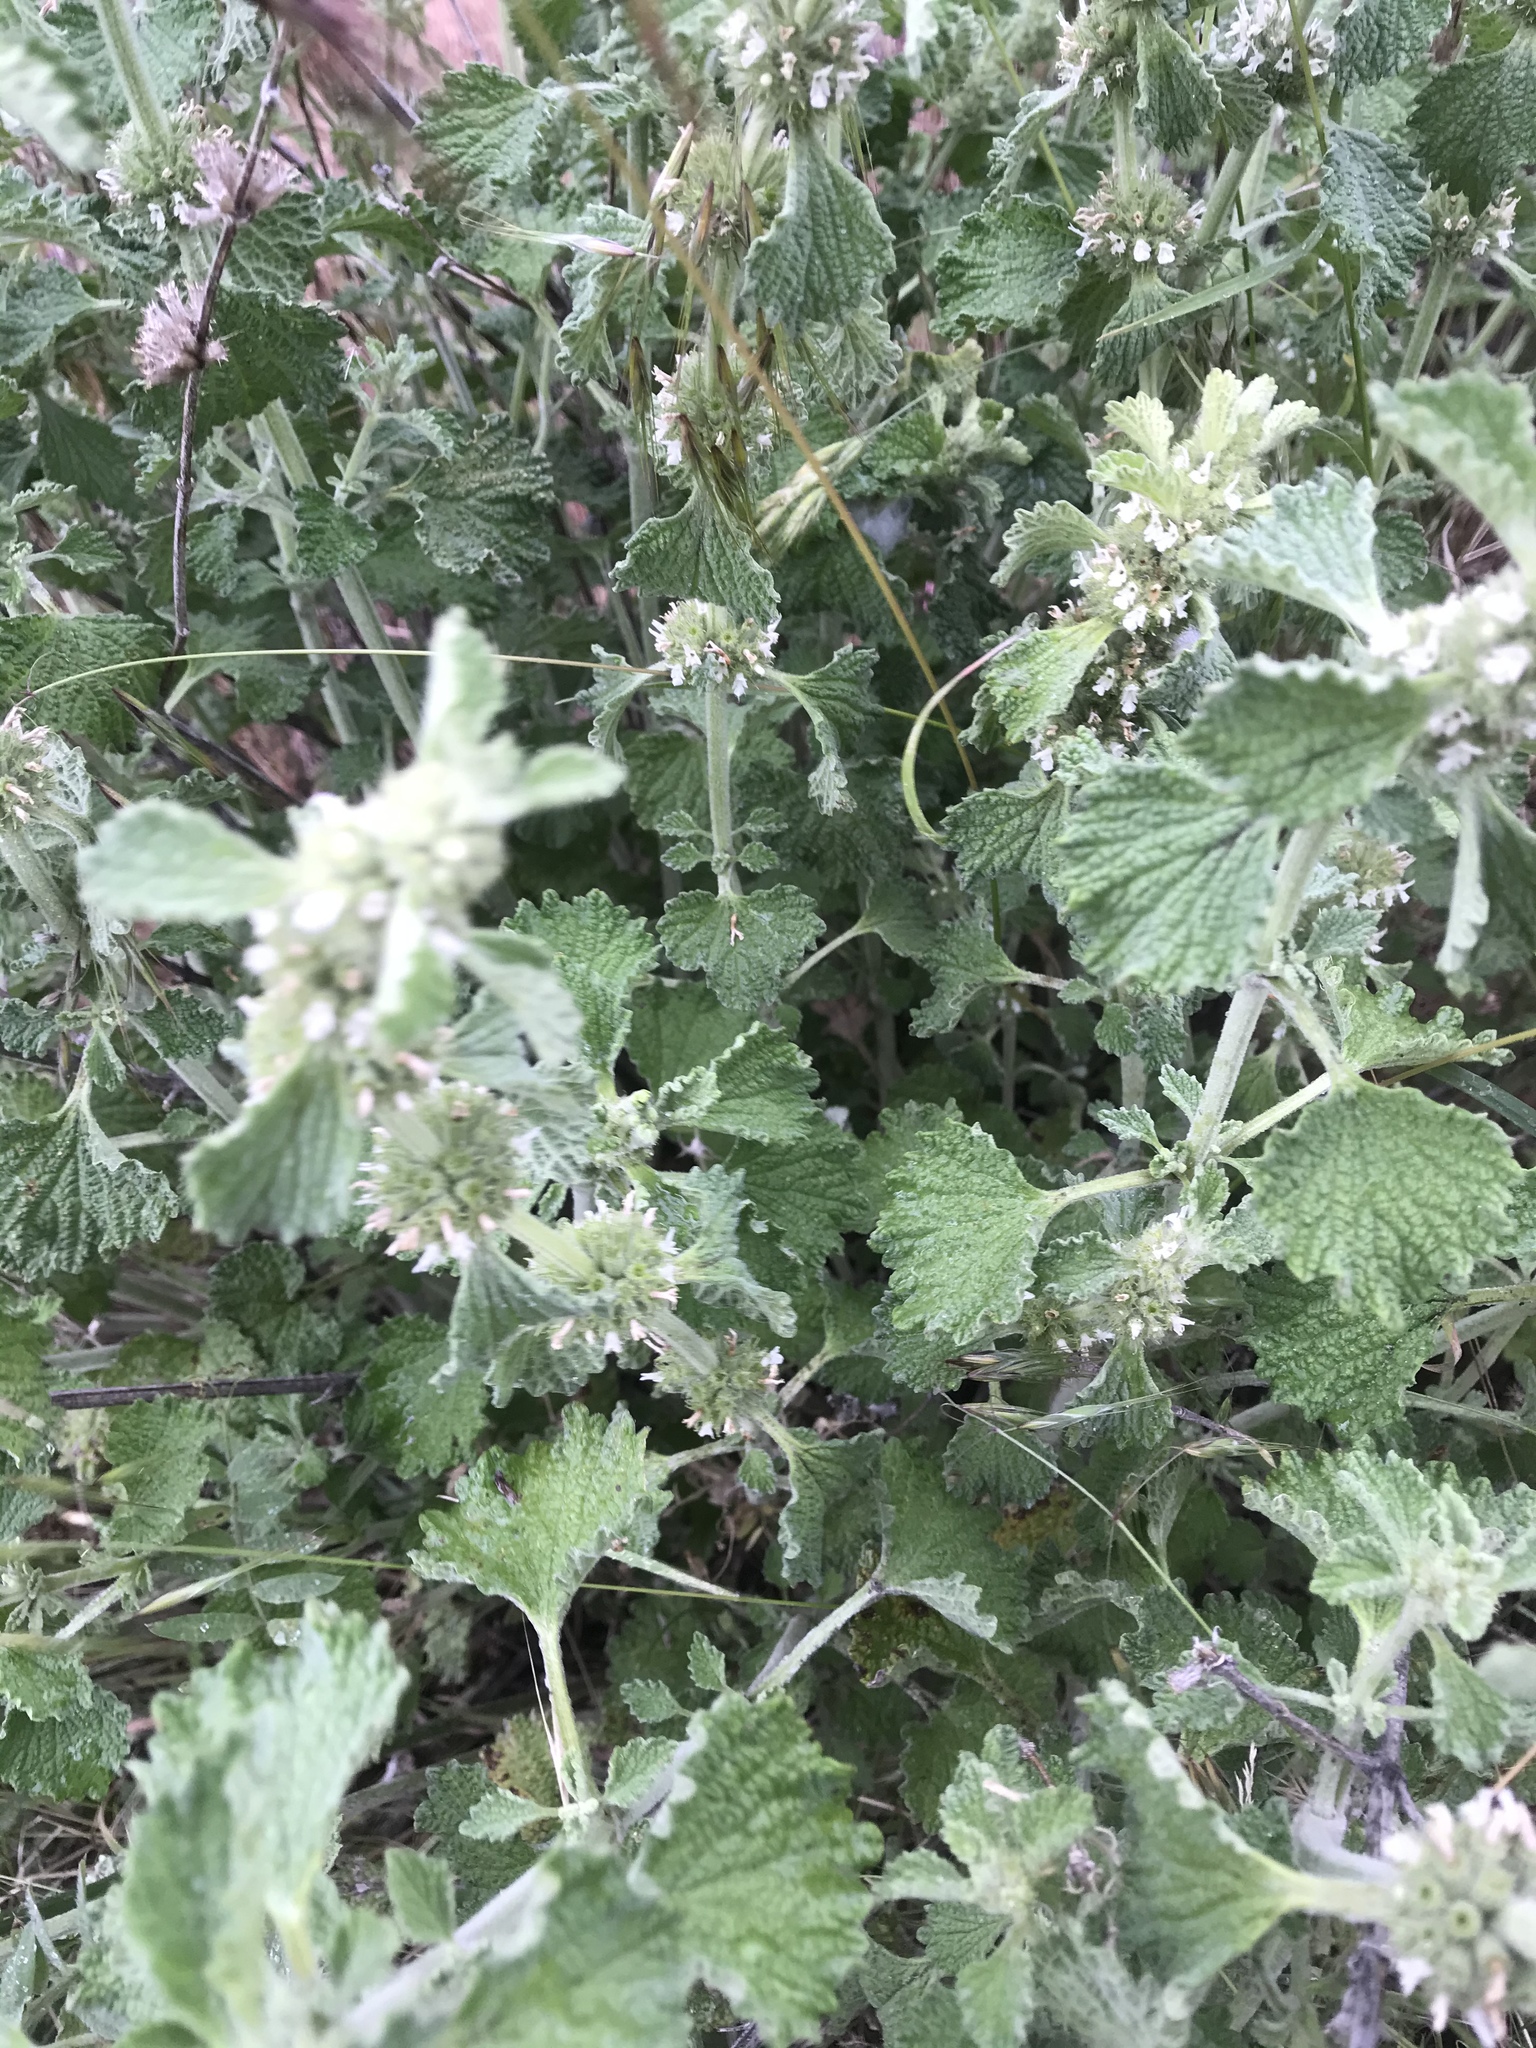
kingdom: Plantae
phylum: Tracheophyta
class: Magnoliopsida
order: Lamiales
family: Lamiaceae
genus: Marrubium
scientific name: Marrubium vulgare
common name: Horehound
